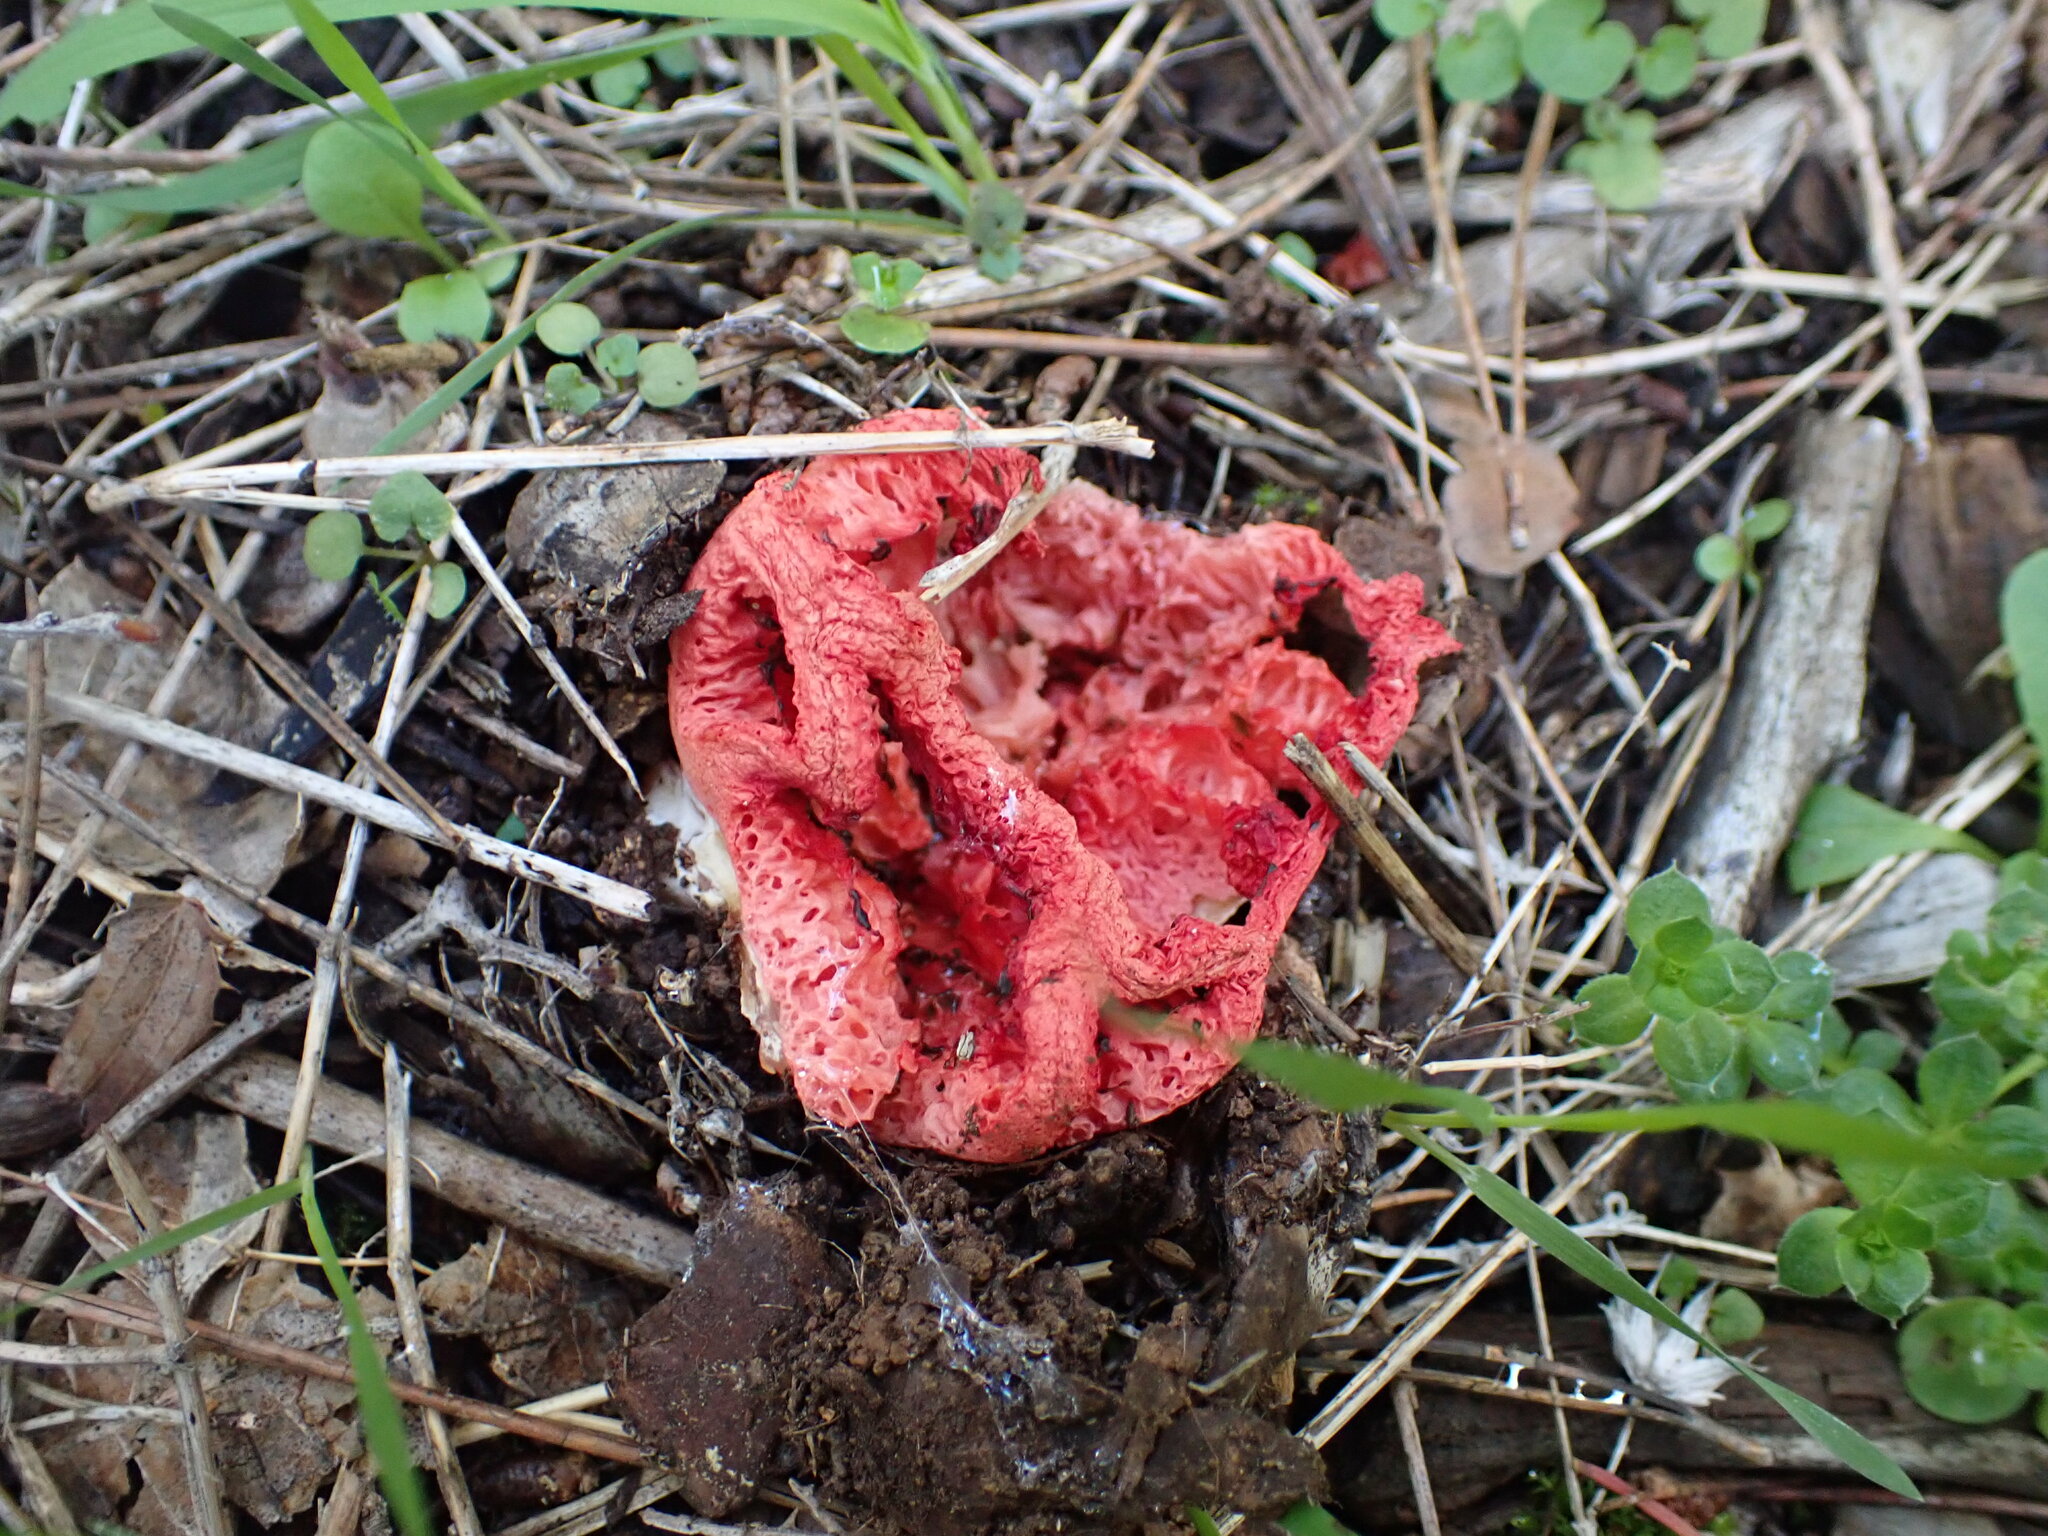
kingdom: Fungi
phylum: Basidiomycota
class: Agaricomycetes
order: Phallales
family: Phallaceae
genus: Clathrus
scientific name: Clathrus ruber
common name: Red cage
